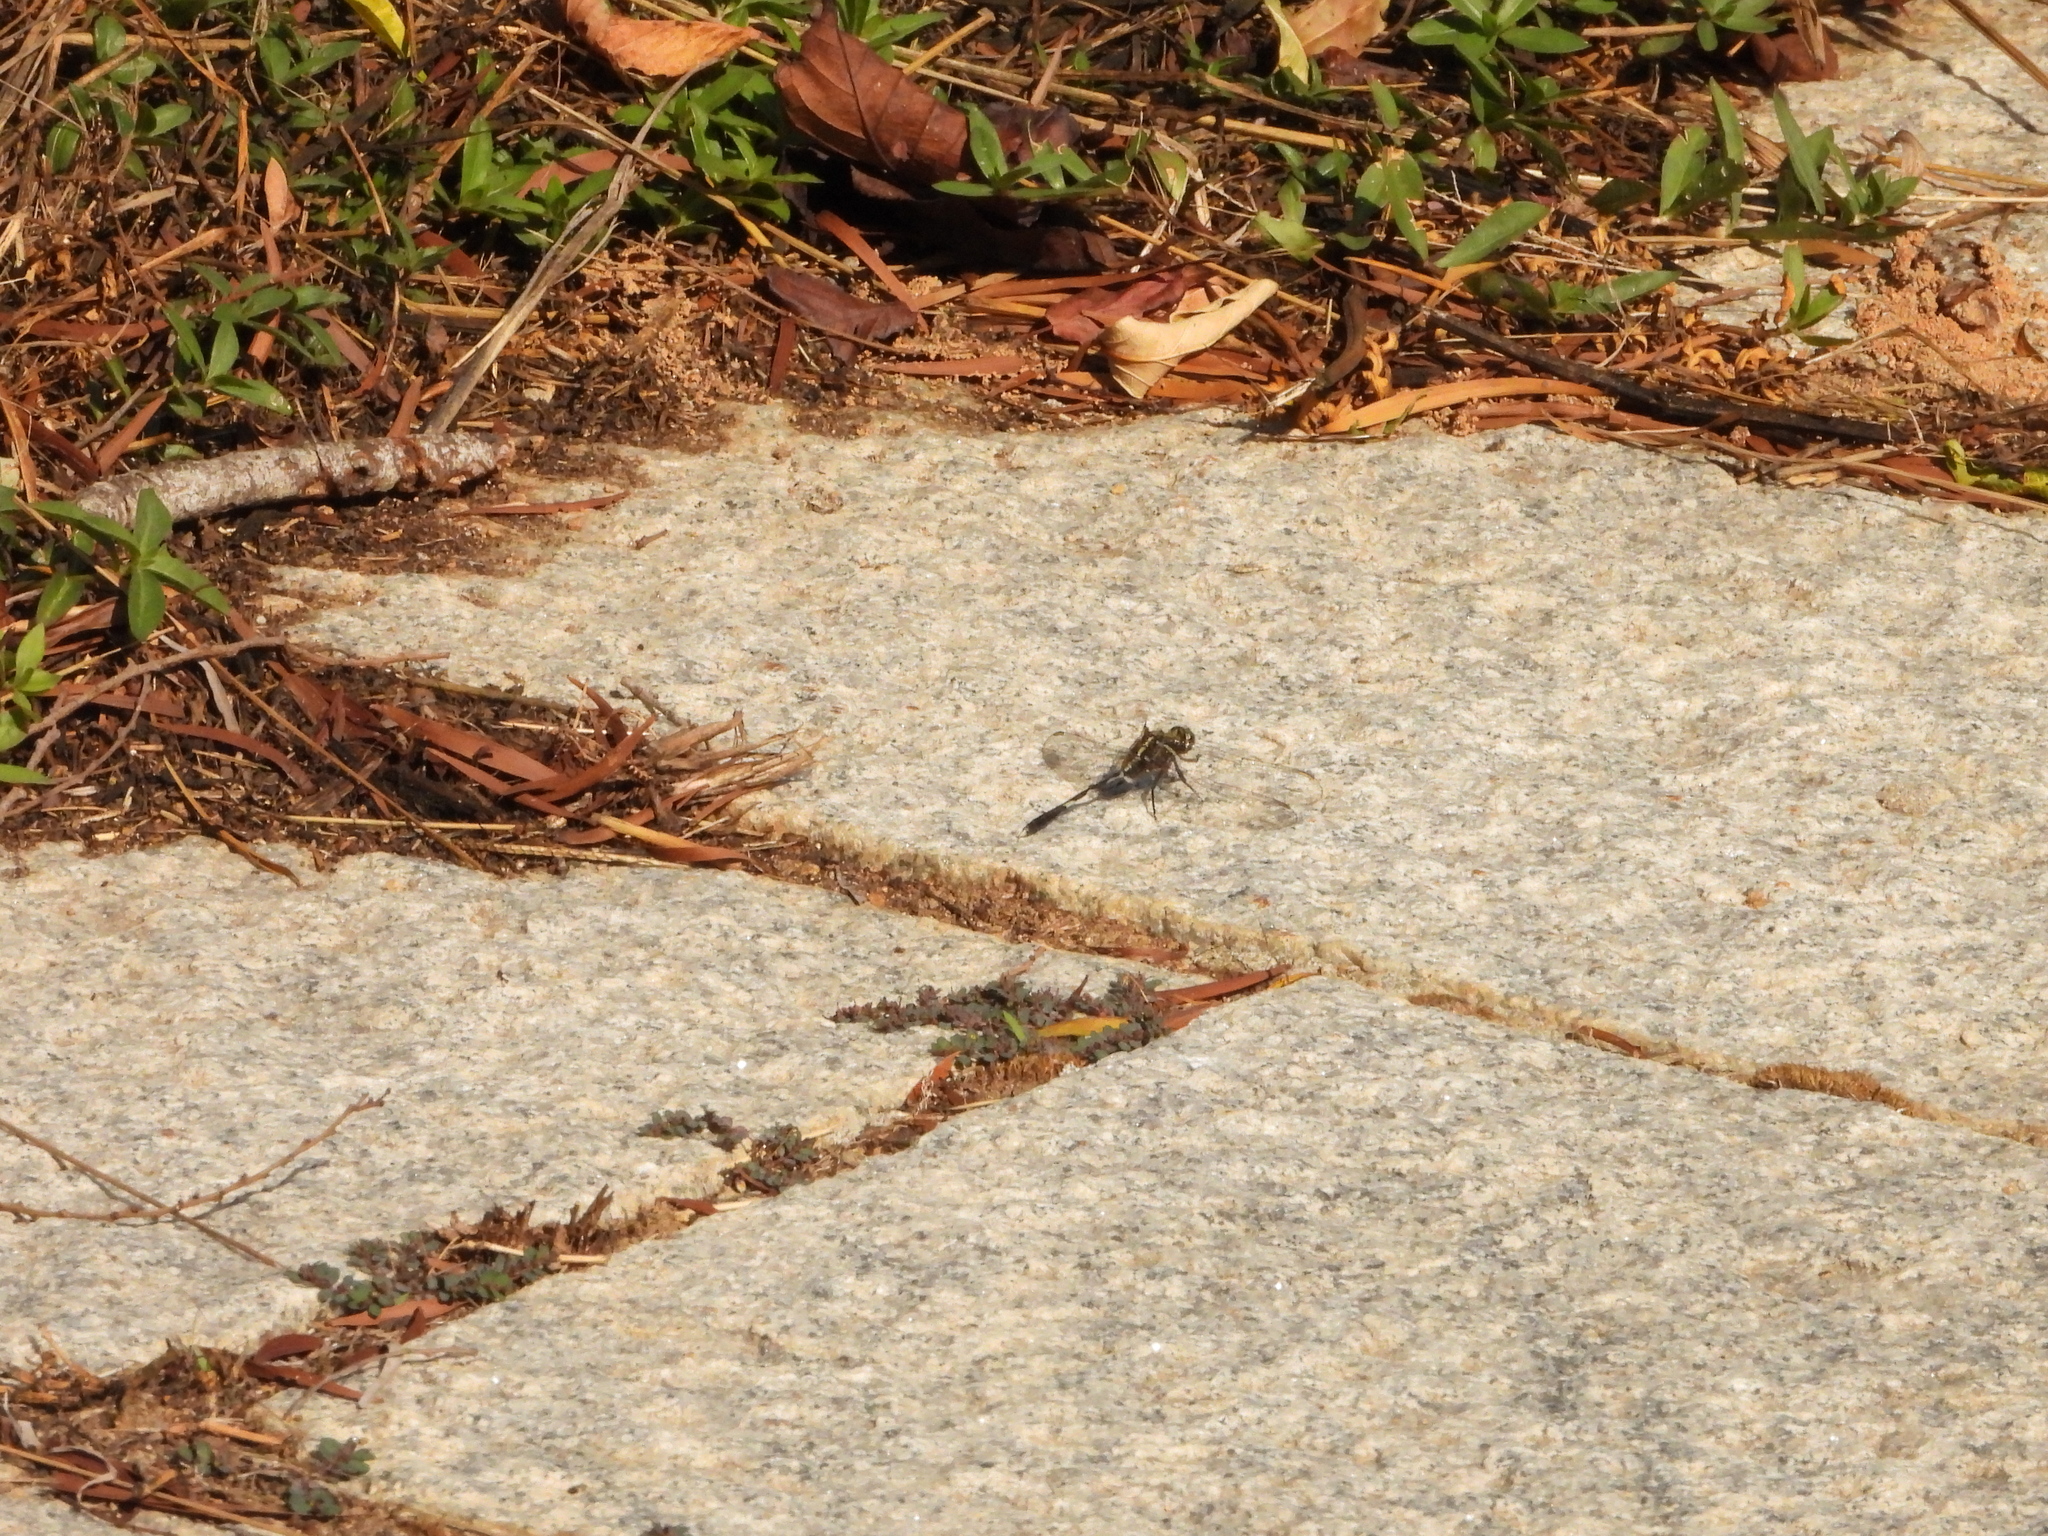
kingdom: Animalia
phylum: Arthropoda
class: Insecta
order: Odonata
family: Libellulidae
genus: Orthetrum
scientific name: Orthetrum sabina
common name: Slender skimmer
